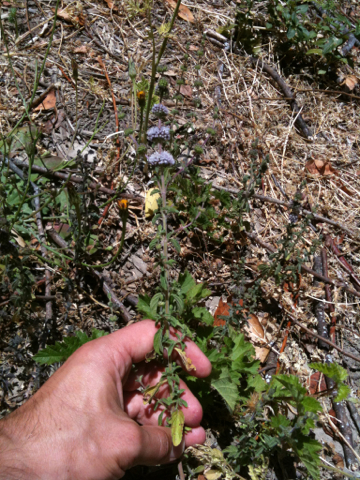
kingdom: Plantae
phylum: Tracheophyta
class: Magnoliopsida
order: Lamiales
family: Lamiaceae
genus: Mentha
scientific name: Mentha pulegium
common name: Pennyroyal
